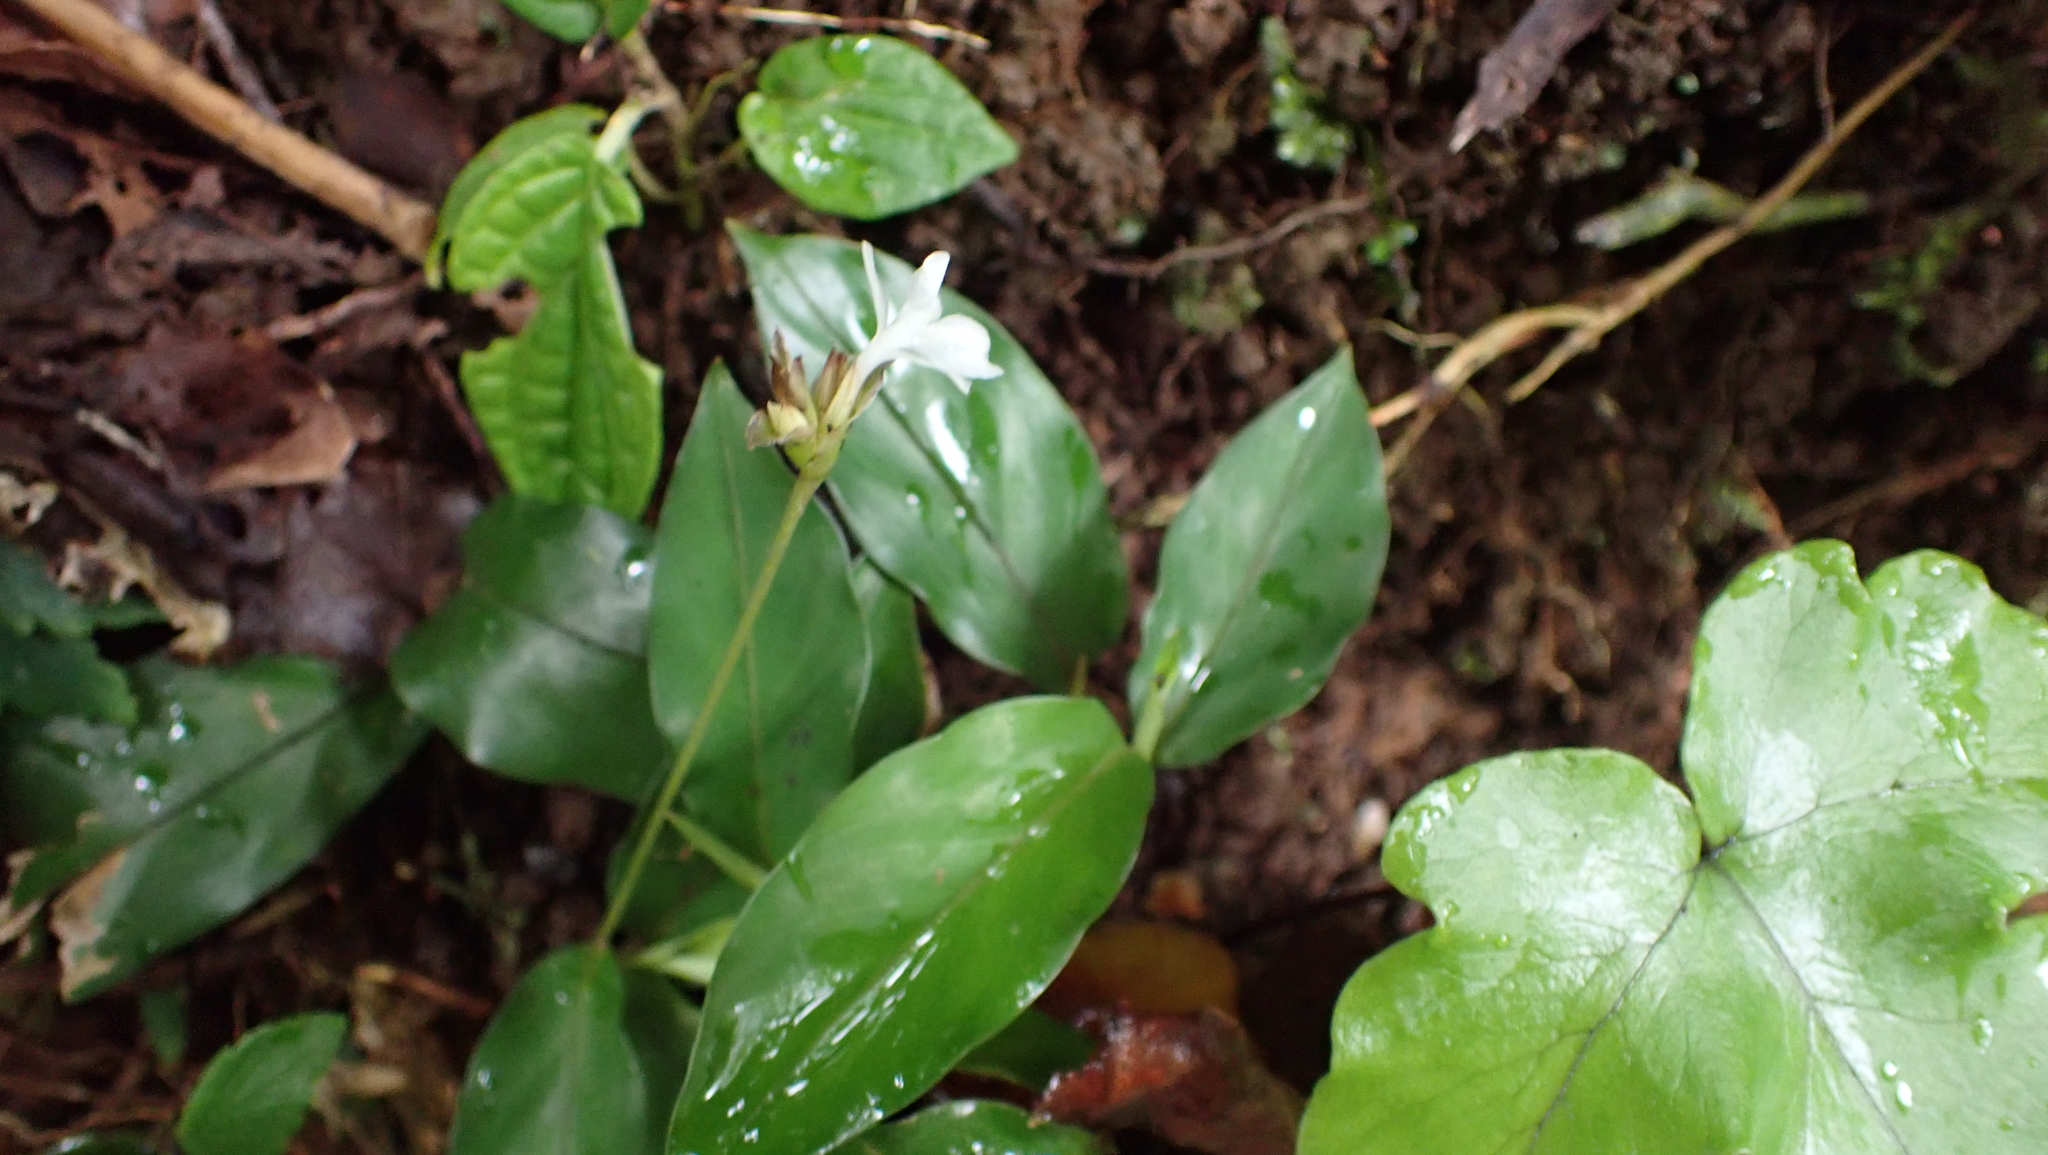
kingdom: Plantae
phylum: Tracheophyta
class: Liliopsida
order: Zingiberales
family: Marantaceae
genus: Goeppertia
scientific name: Goeppertia micans
